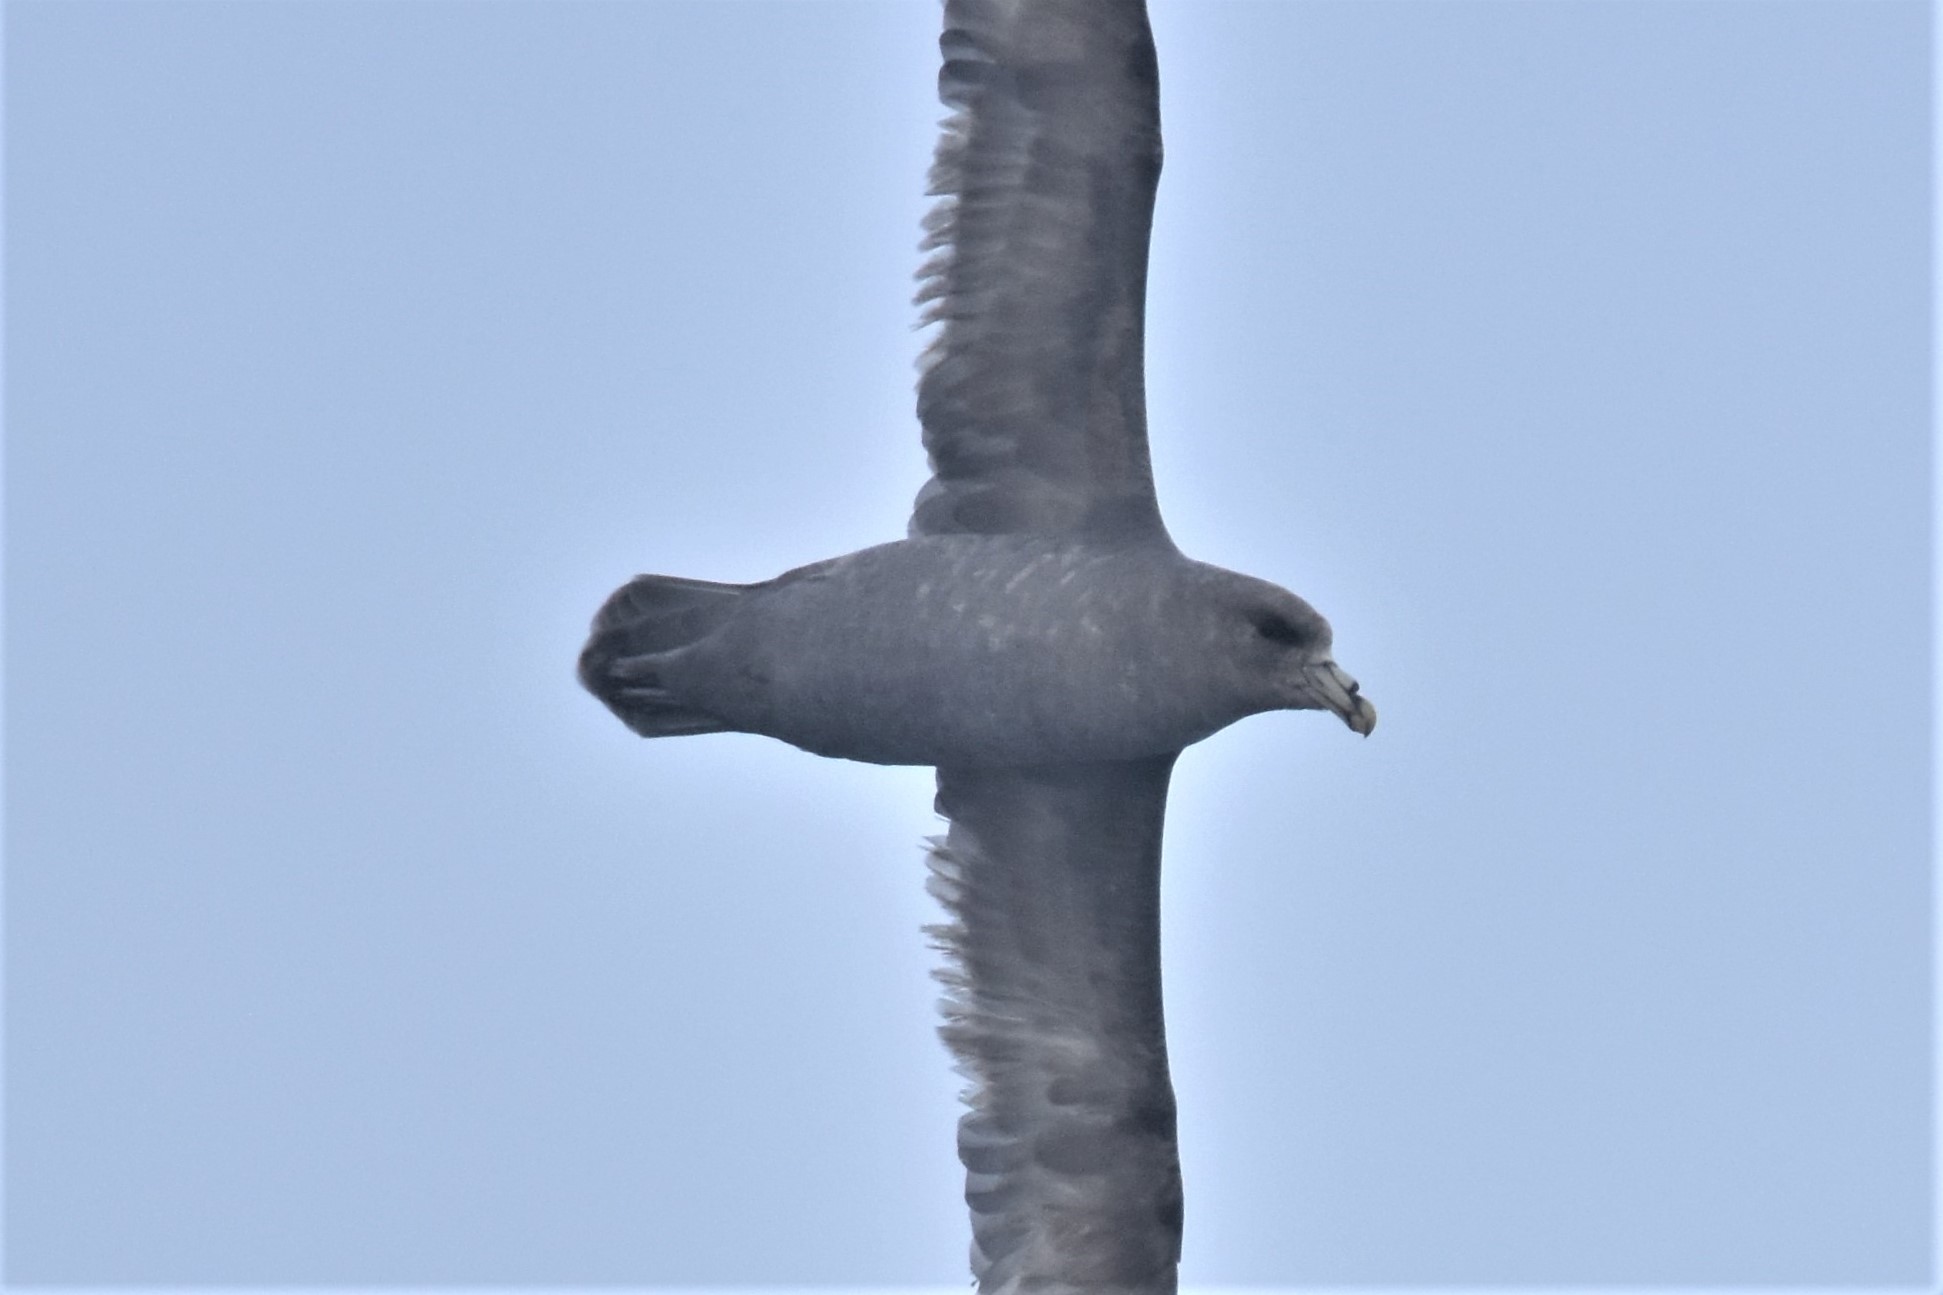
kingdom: Animalia
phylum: Chordata
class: Aves
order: Procellariiformes
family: Procellariidae
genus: Fulmarus
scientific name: Fulmarus glacialis
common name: Northern fulmar
